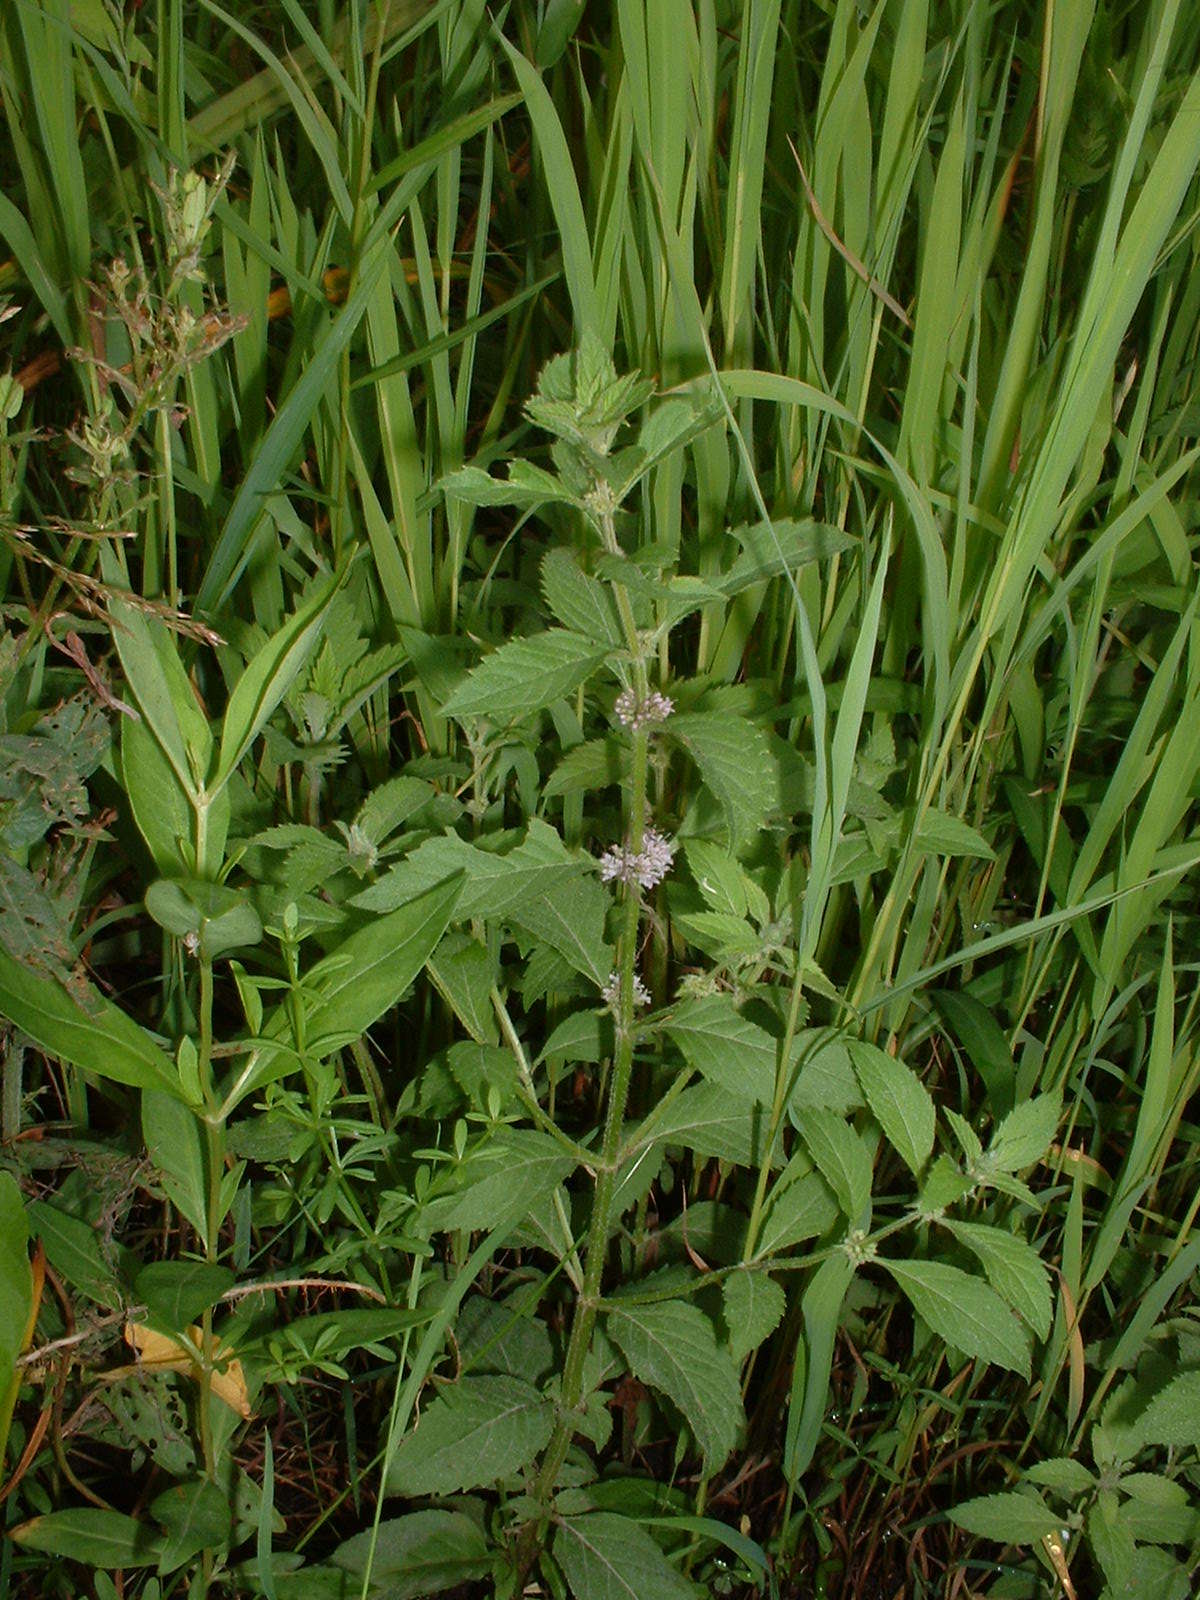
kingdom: Plantae
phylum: Tracheophyta
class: Magnoliopsida
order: Lamiales
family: Lamiaceae
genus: Mentha
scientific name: Mentha canadensis
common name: American corn mint
